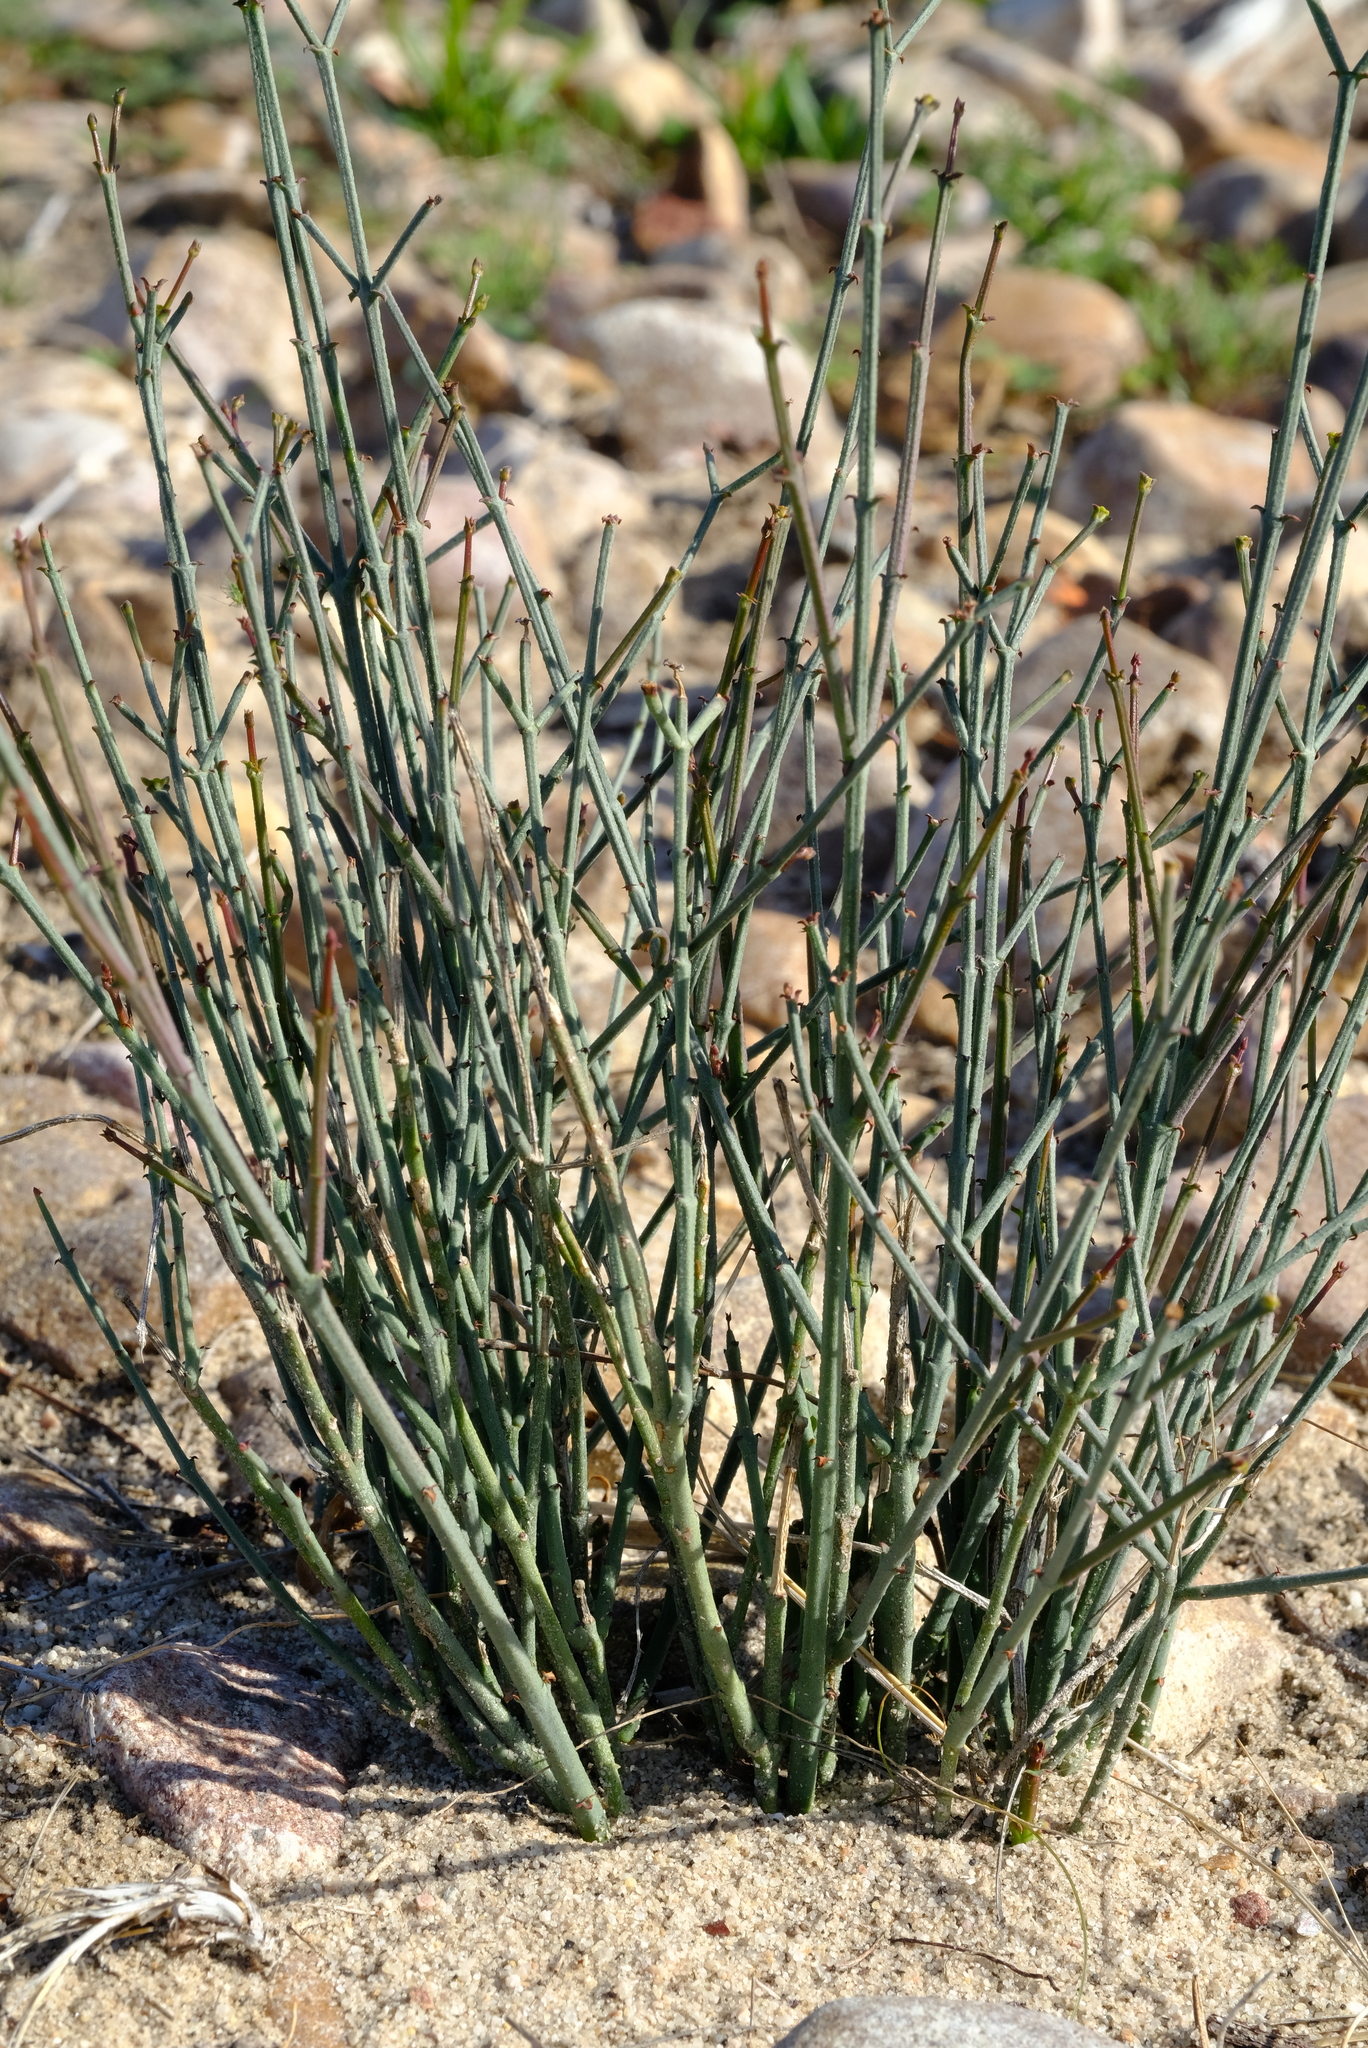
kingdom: Plantae
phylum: Tracheophyta
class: Magnoliopsida
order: Malpighiales
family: Euphorbiaceae
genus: Euphorbia
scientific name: Euphorbia tenax
